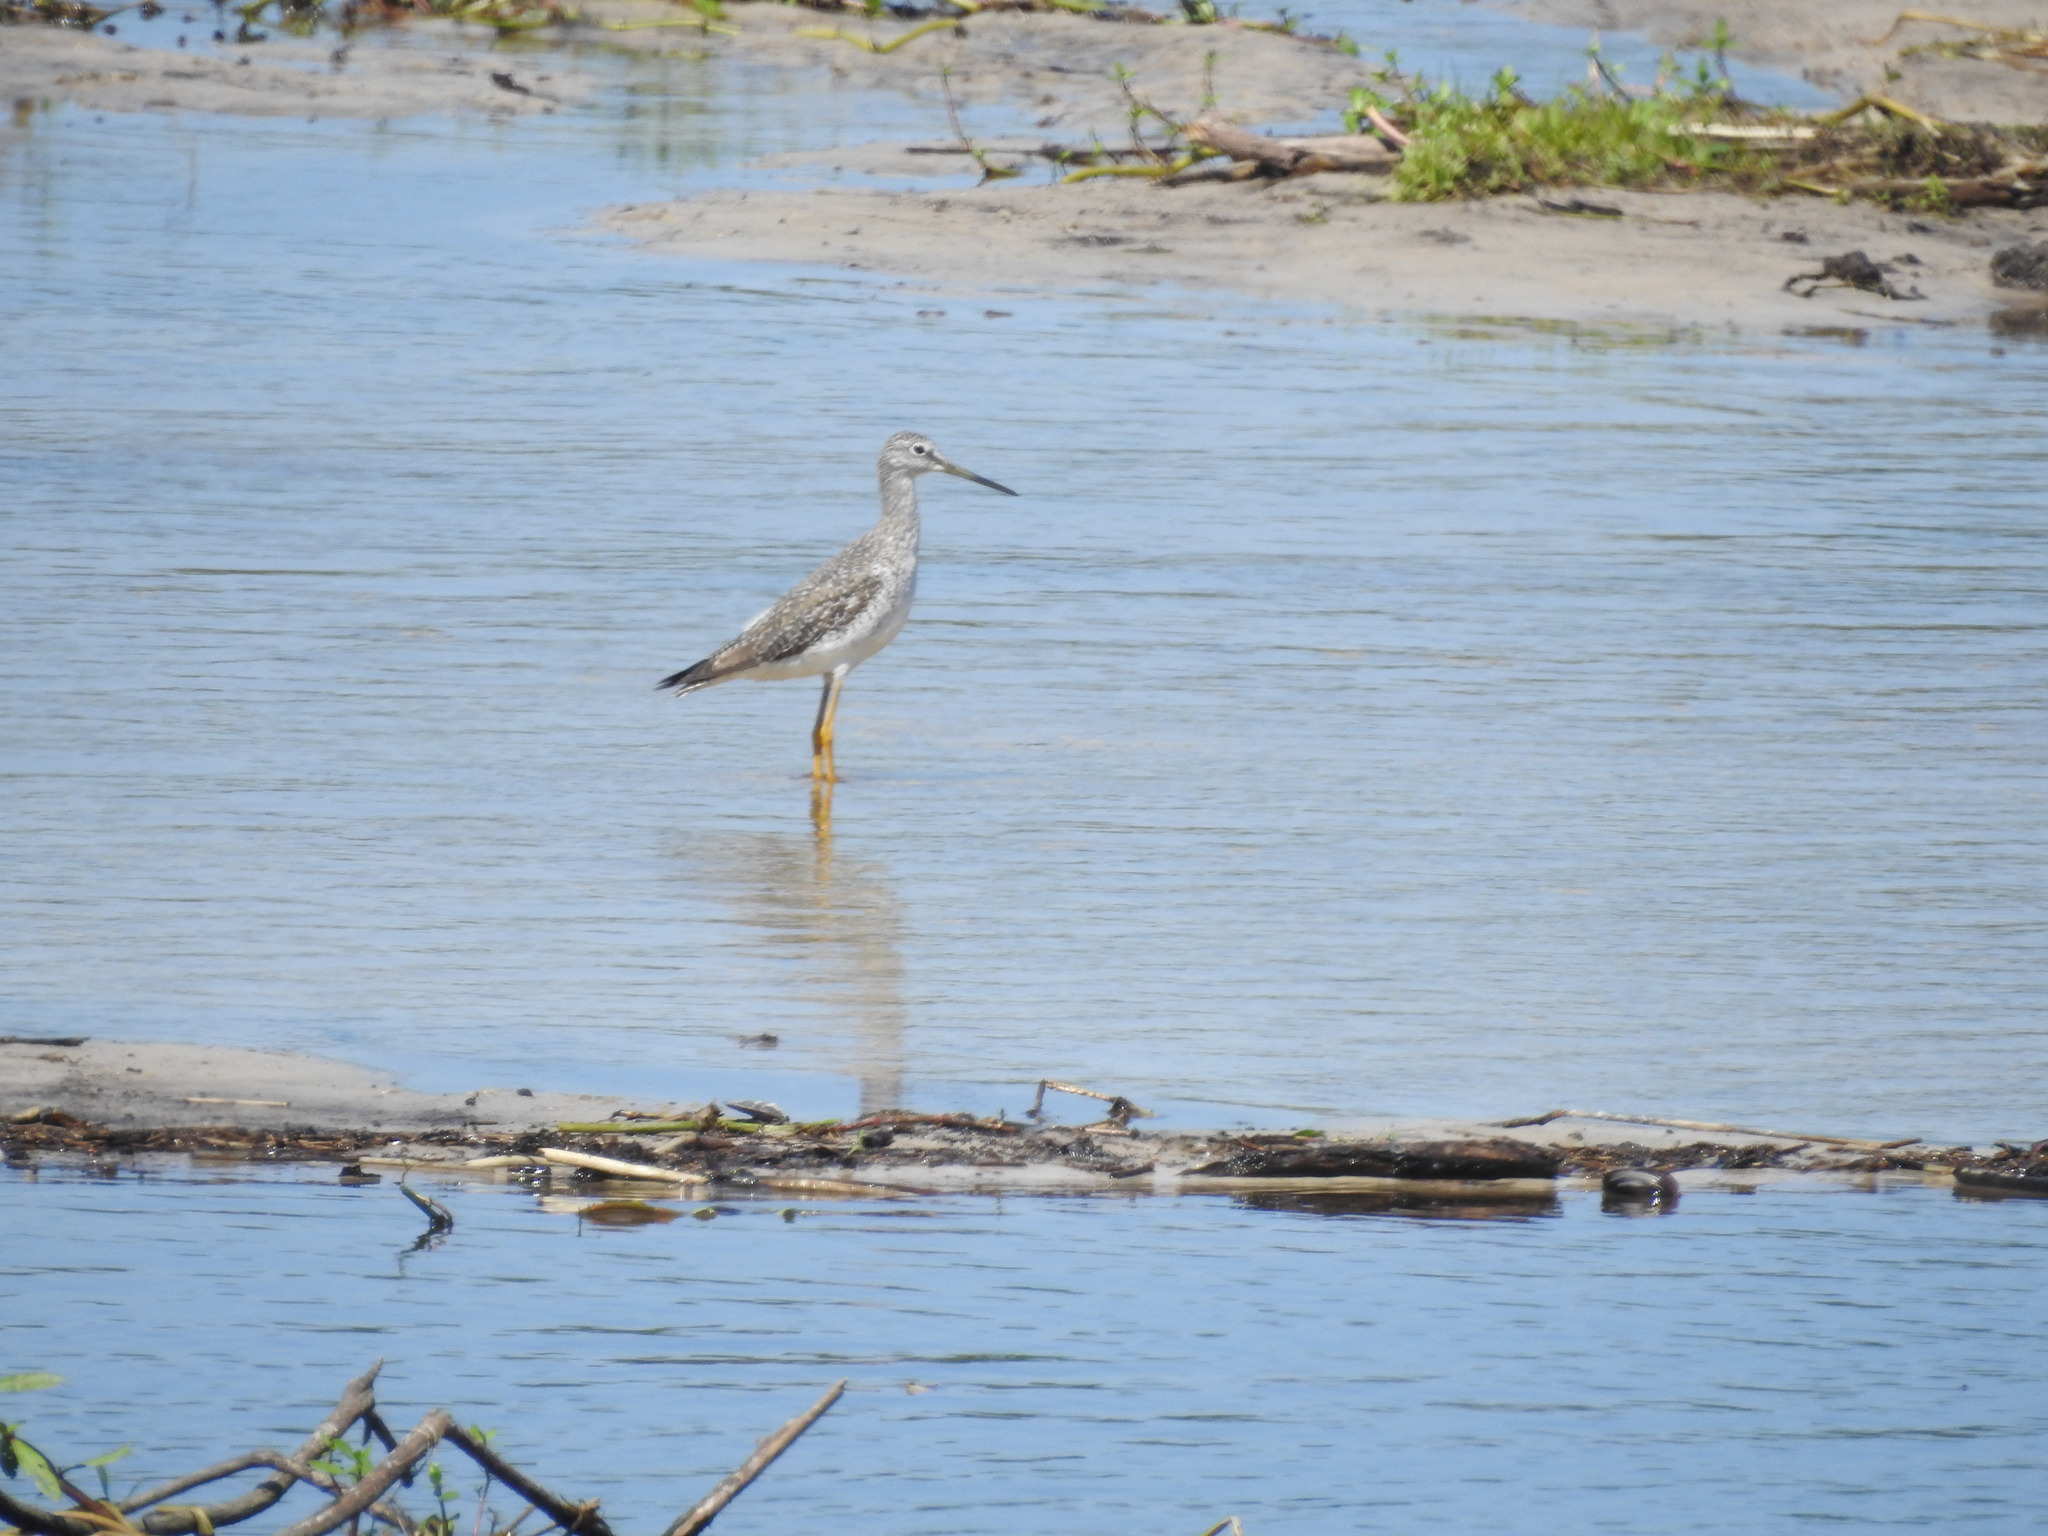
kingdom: Animalia
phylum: Chordata
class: Aves
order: Charadriiformes
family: Scolopacidae
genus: Tringa
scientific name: Tringa melanoleuca
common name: Greater yellowlegs
